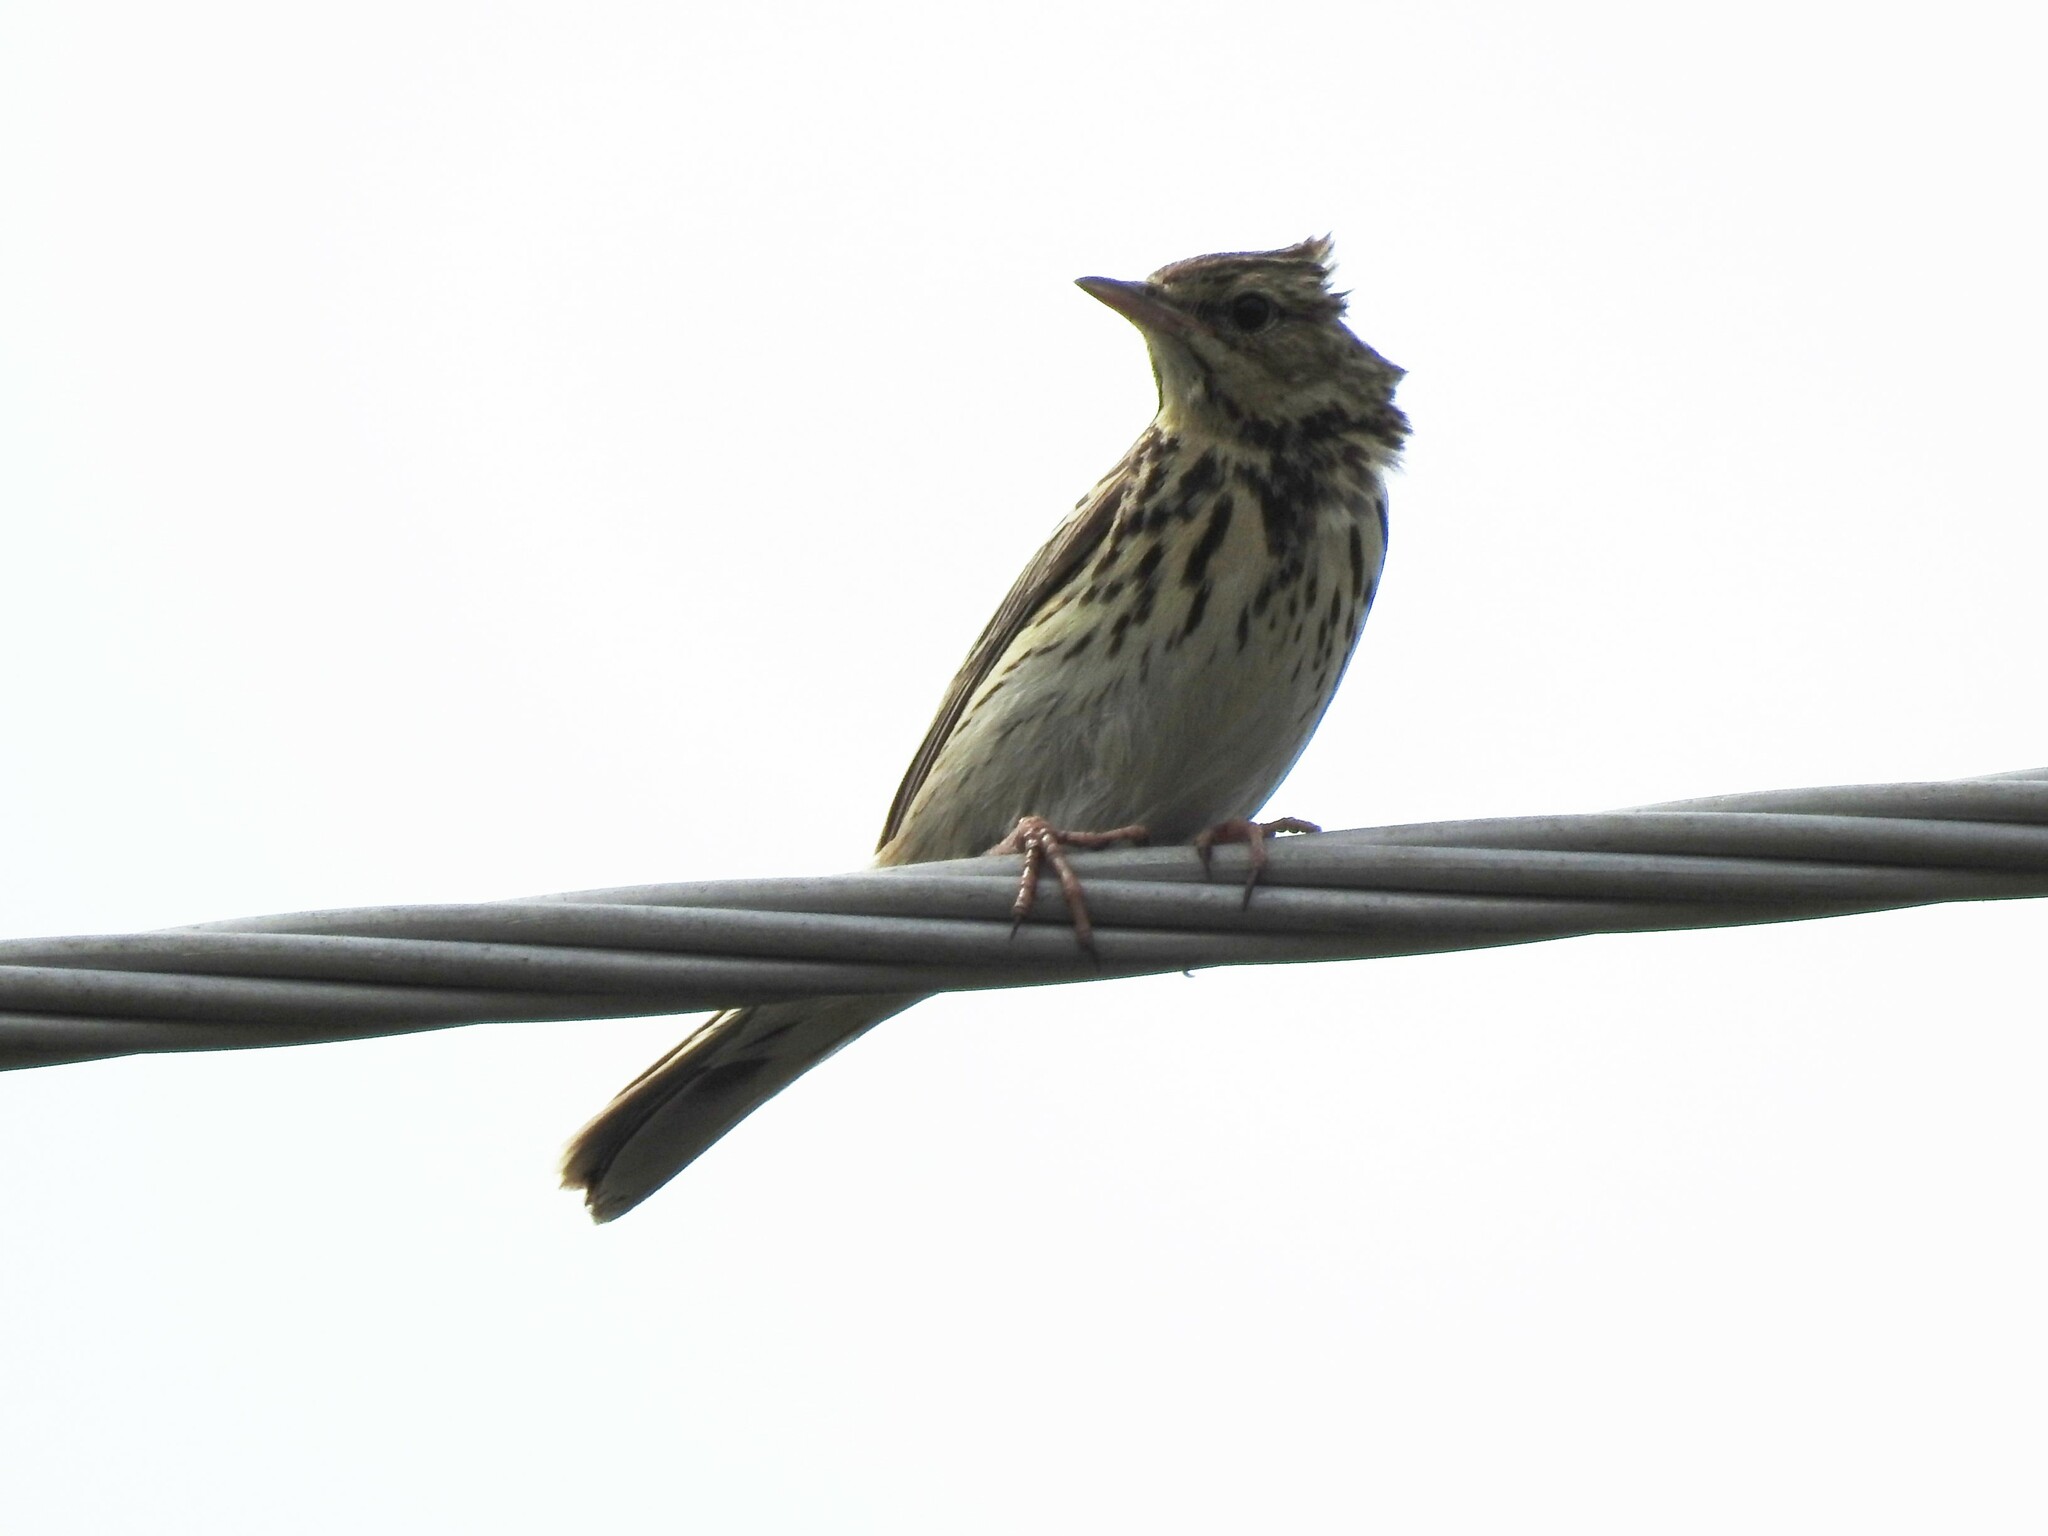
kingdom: Animalia
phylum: Chordata
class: Aves
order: Passeriformes
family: Motacillidae
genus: Anthus
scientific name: Anthus trivialis
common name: Tree pipit
